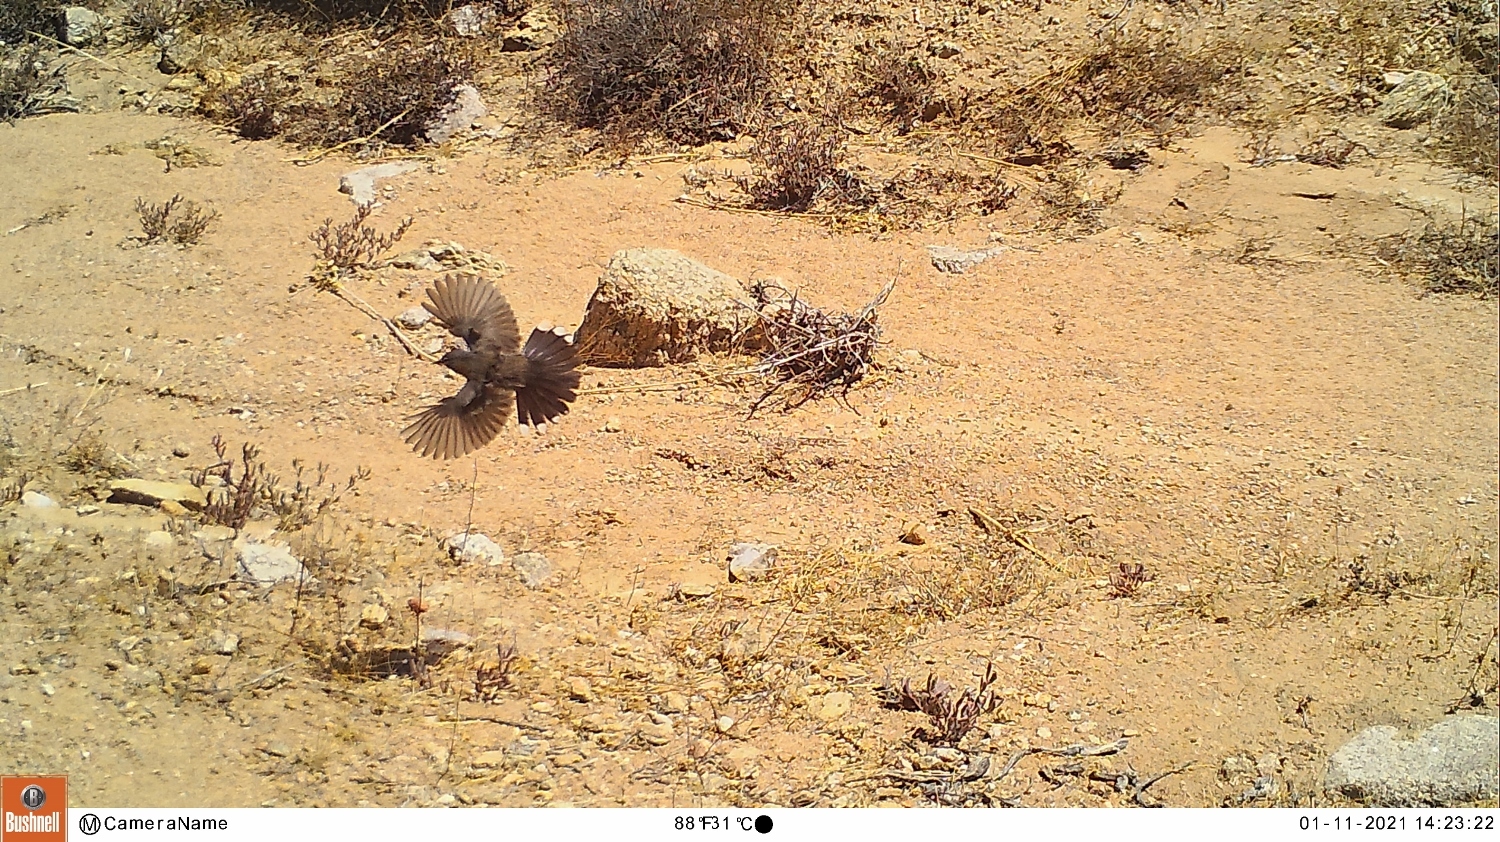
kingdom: Animalia
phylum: Chordata
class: Aves
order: Passeriformes
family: Muscicapidae
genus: Erythropygia
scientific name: Erythropygia coryphoeus
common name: Karoo scrub robin
